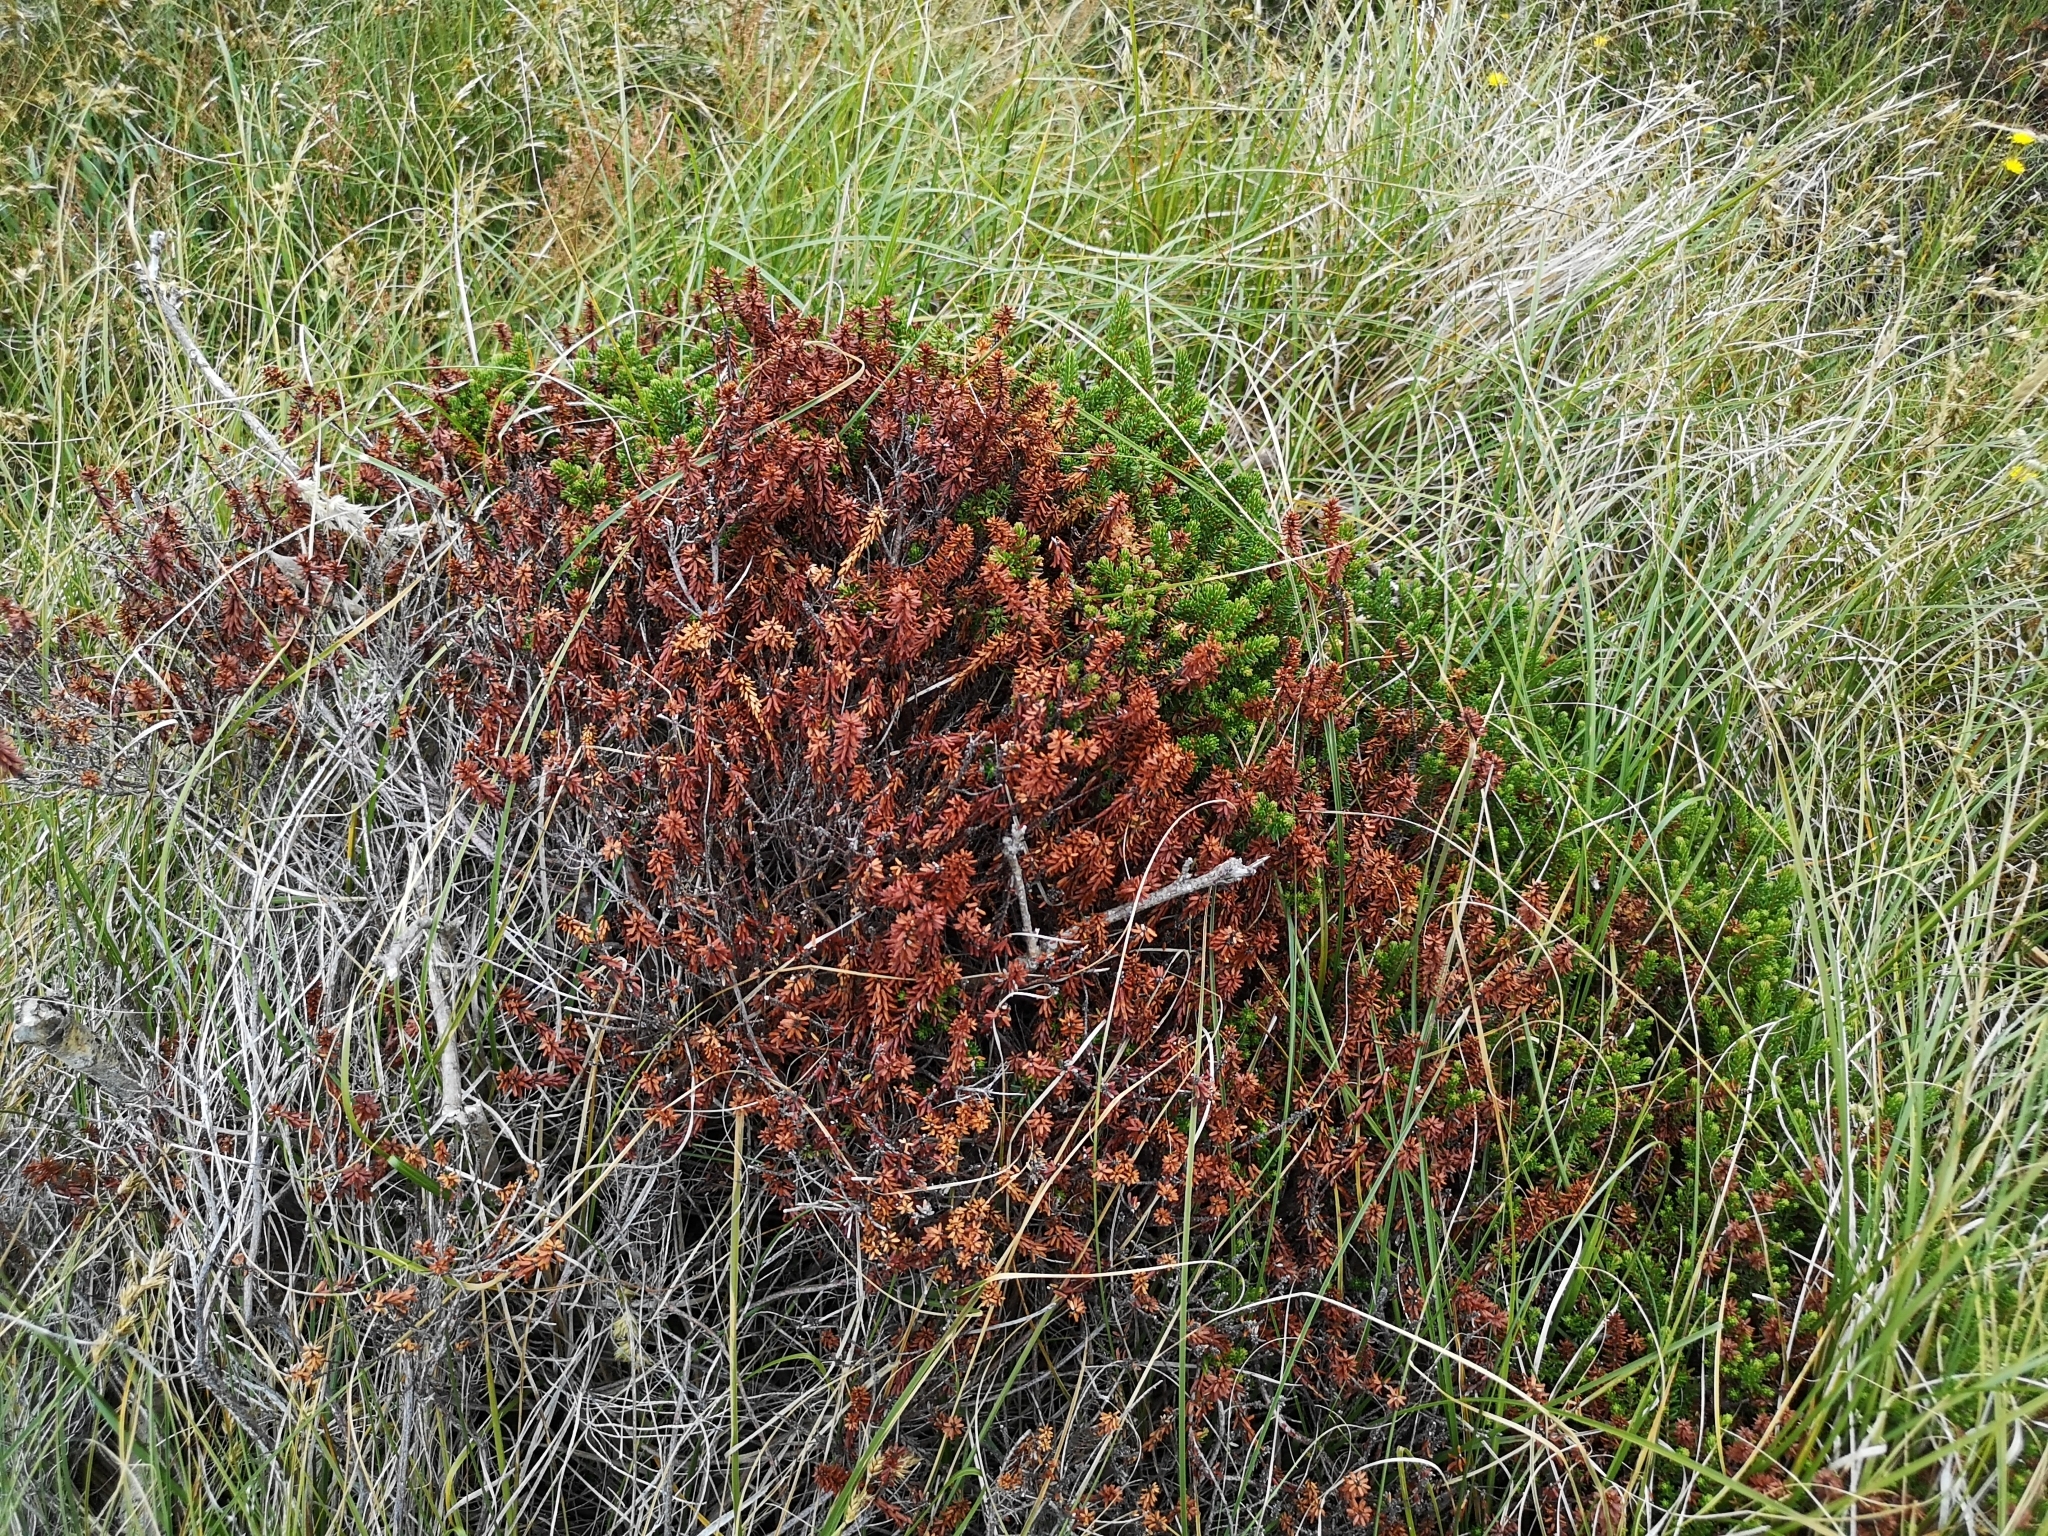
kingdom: Plantae
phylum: Tracheophyta
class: Magnoliopsida
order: Ericales
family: Ericaceae
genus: Empetrum
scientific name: Empetrum nigrum
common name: Black crowberry
